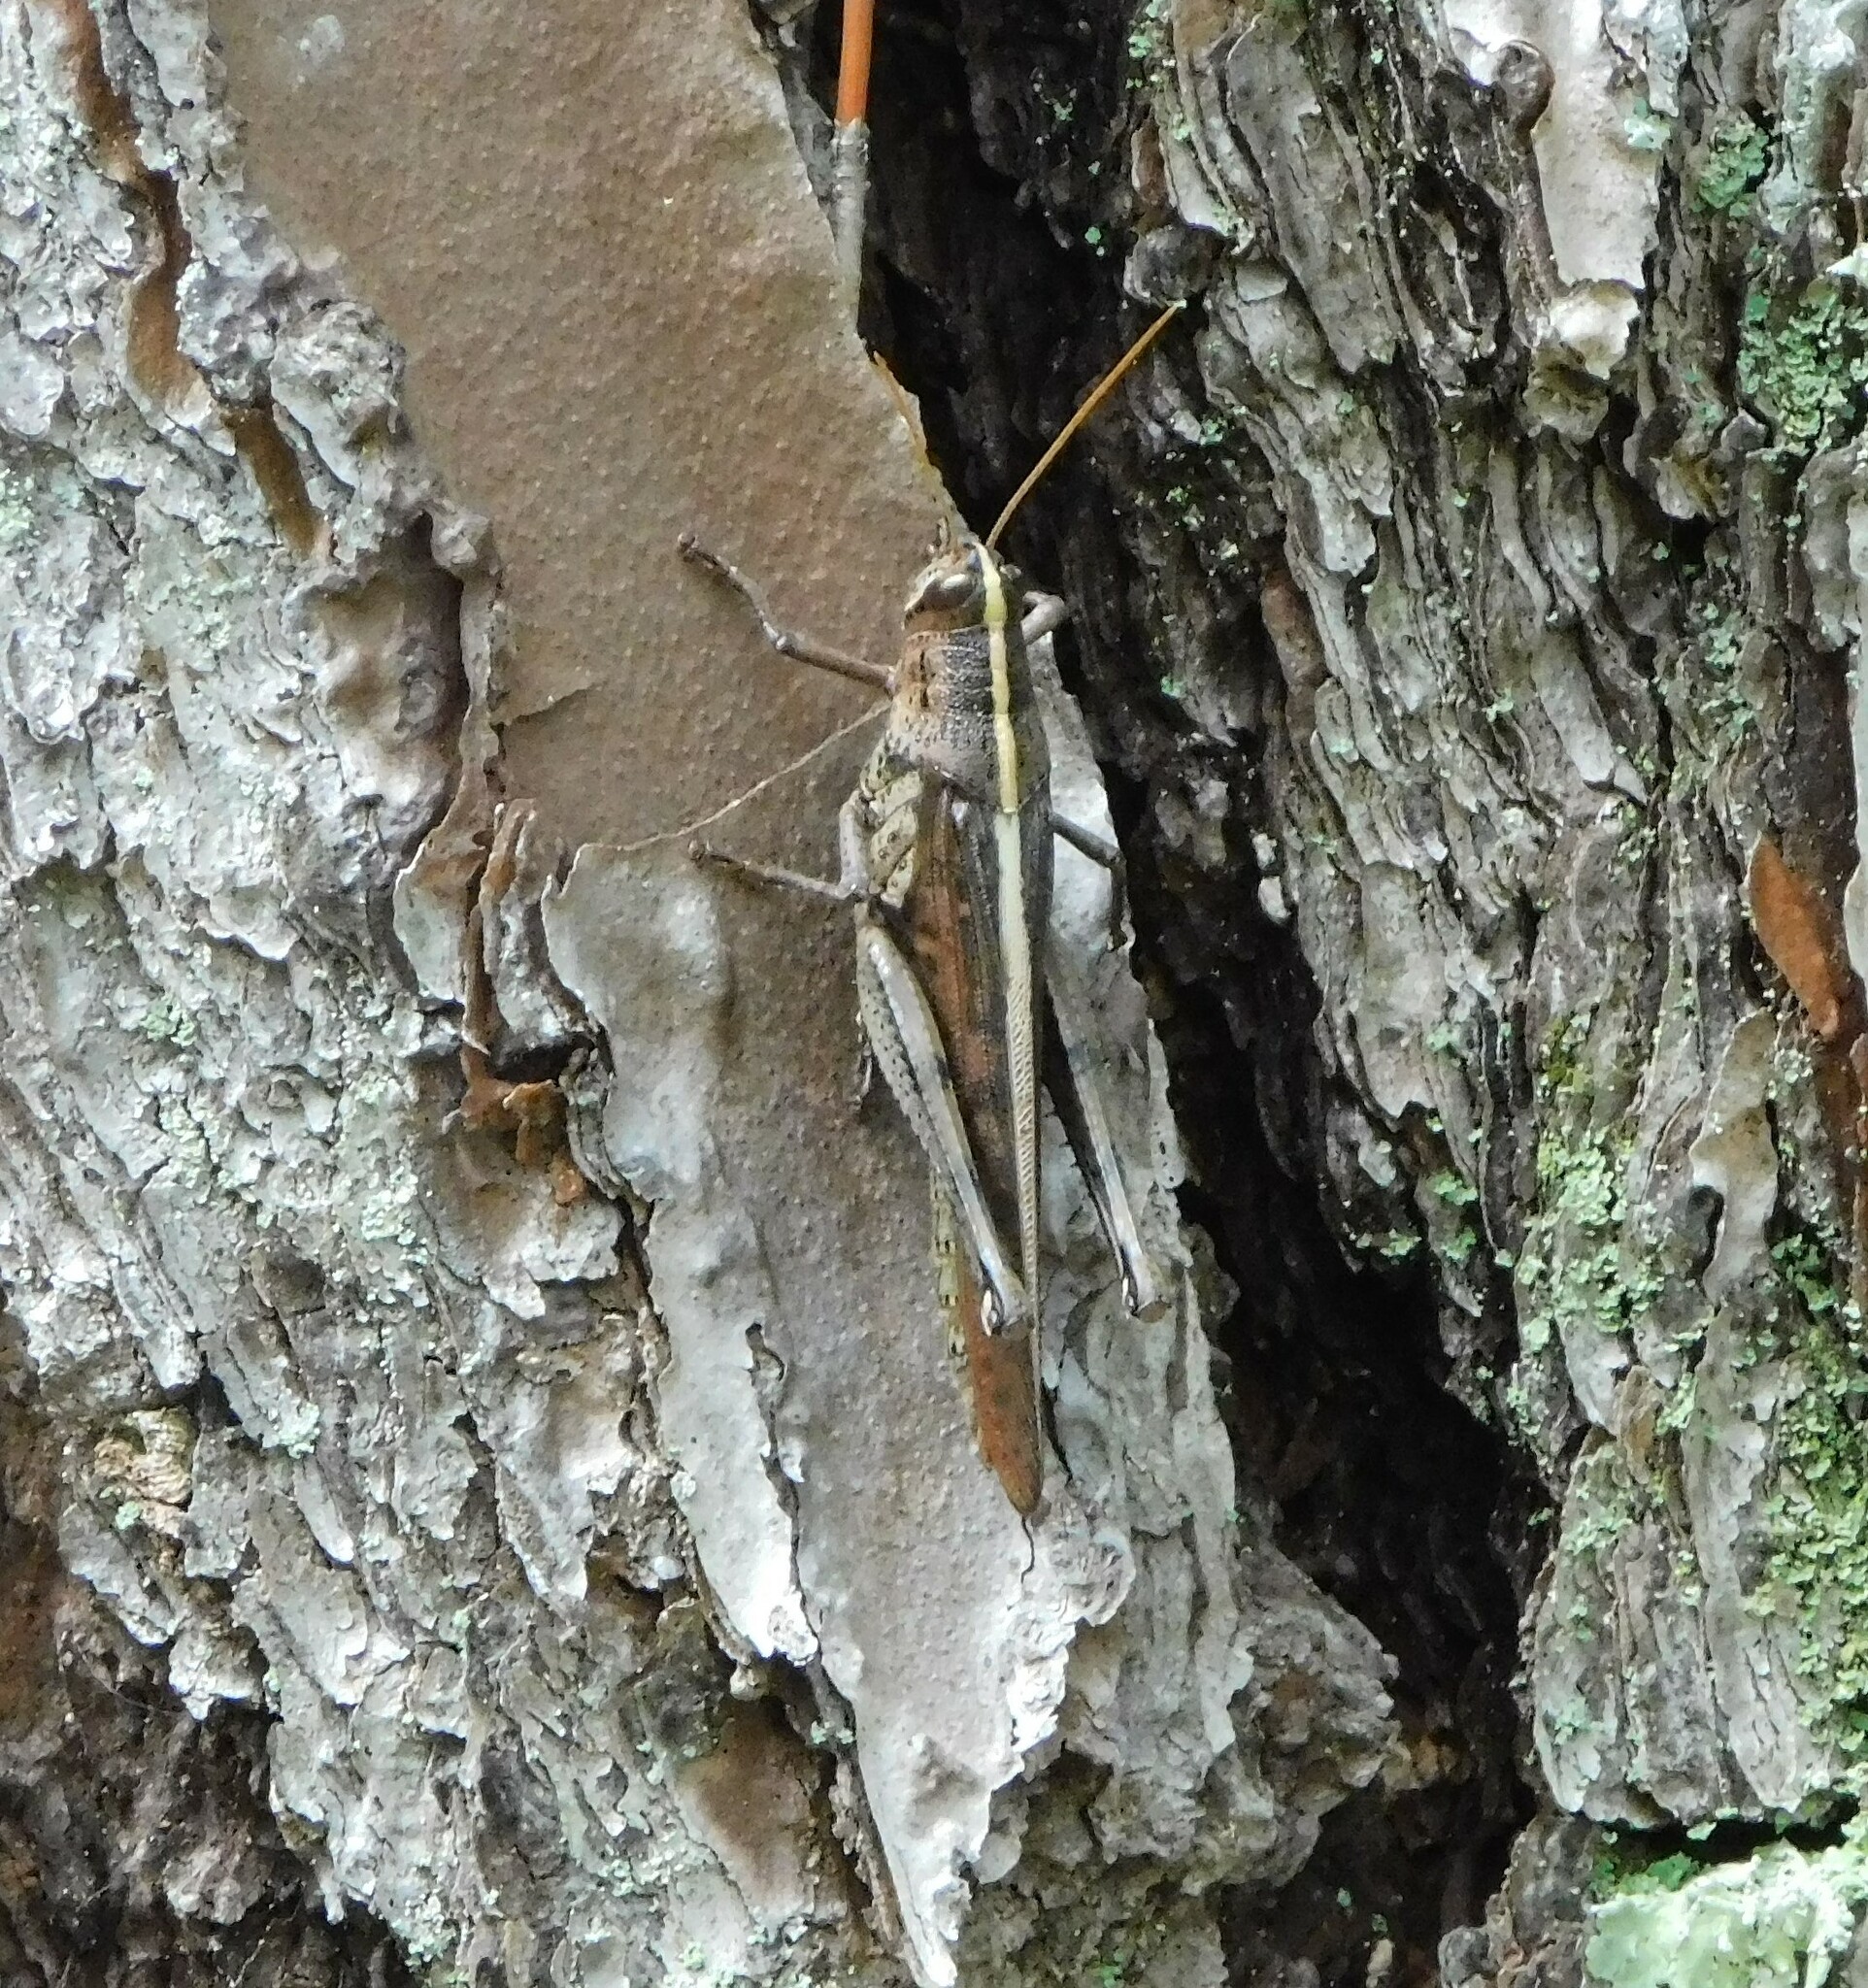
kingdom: Animalia
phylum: Arthropoda
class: Insecta
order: Orthoptera
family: Acrididae
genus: Schistocerca
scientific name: Schistocerca alutacea
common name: Leather-colored bird locust
